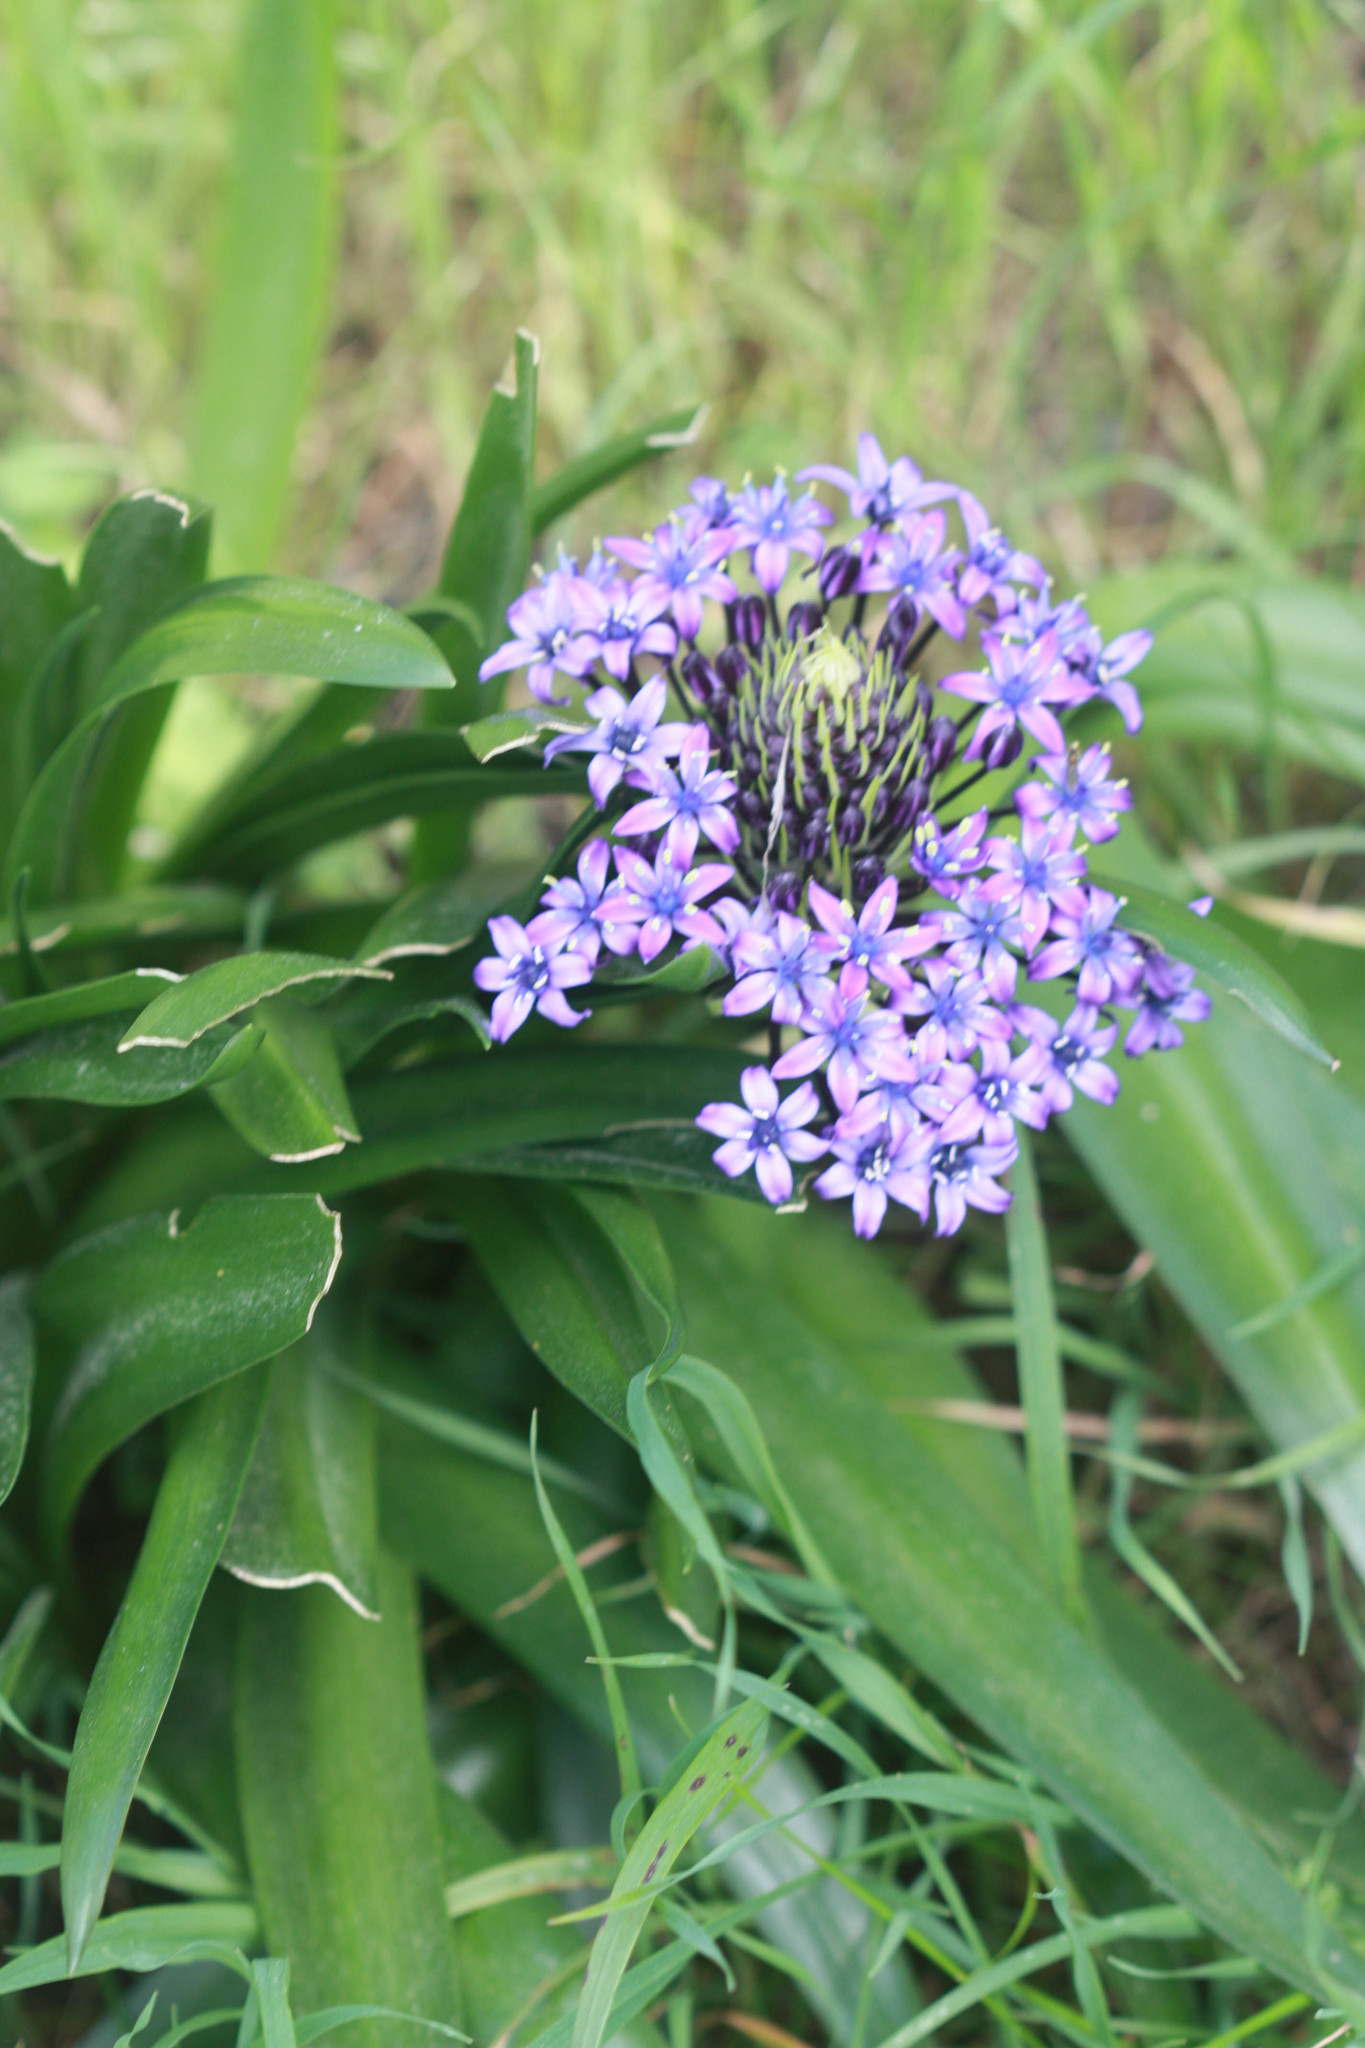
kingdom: Plantae
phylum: Tracheophyta
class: Liliopsida
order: Asparagales
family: Asparagaceae
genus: Scilla
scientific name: Scilla peruviana
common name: Portuguese squill
